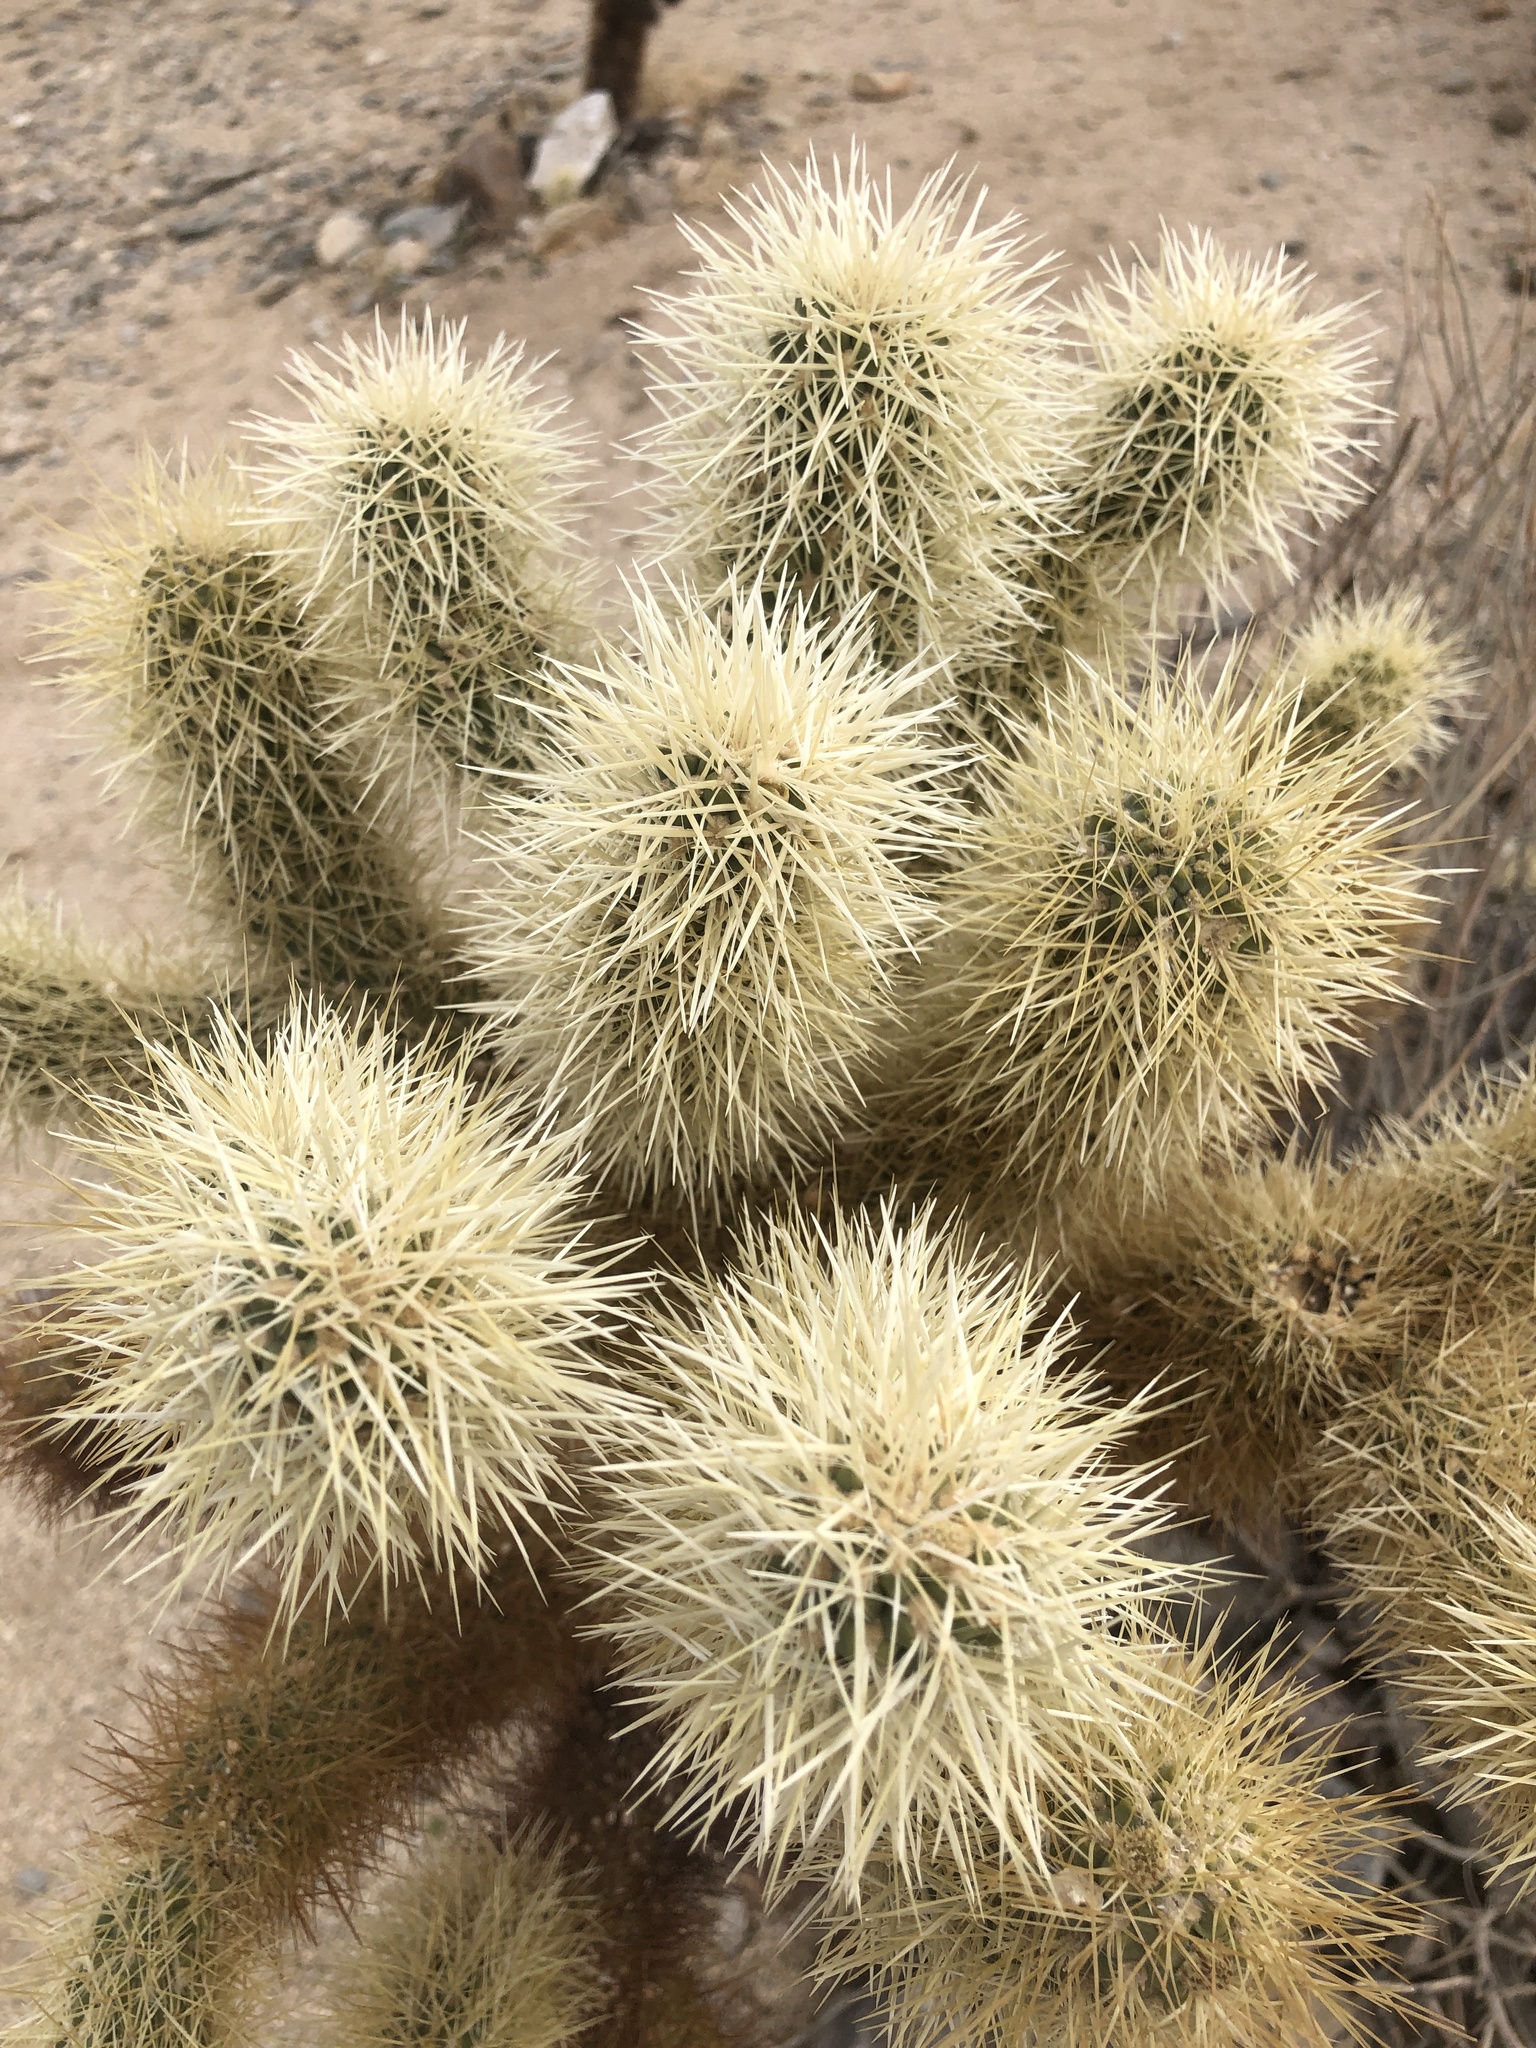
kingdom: Plantae
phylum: Tracheophyta
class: Magnoliopsida
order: Caryophyllales
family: Cactaceae
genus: Cylindropuntia
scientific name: Cylindropuntia fosbergii
